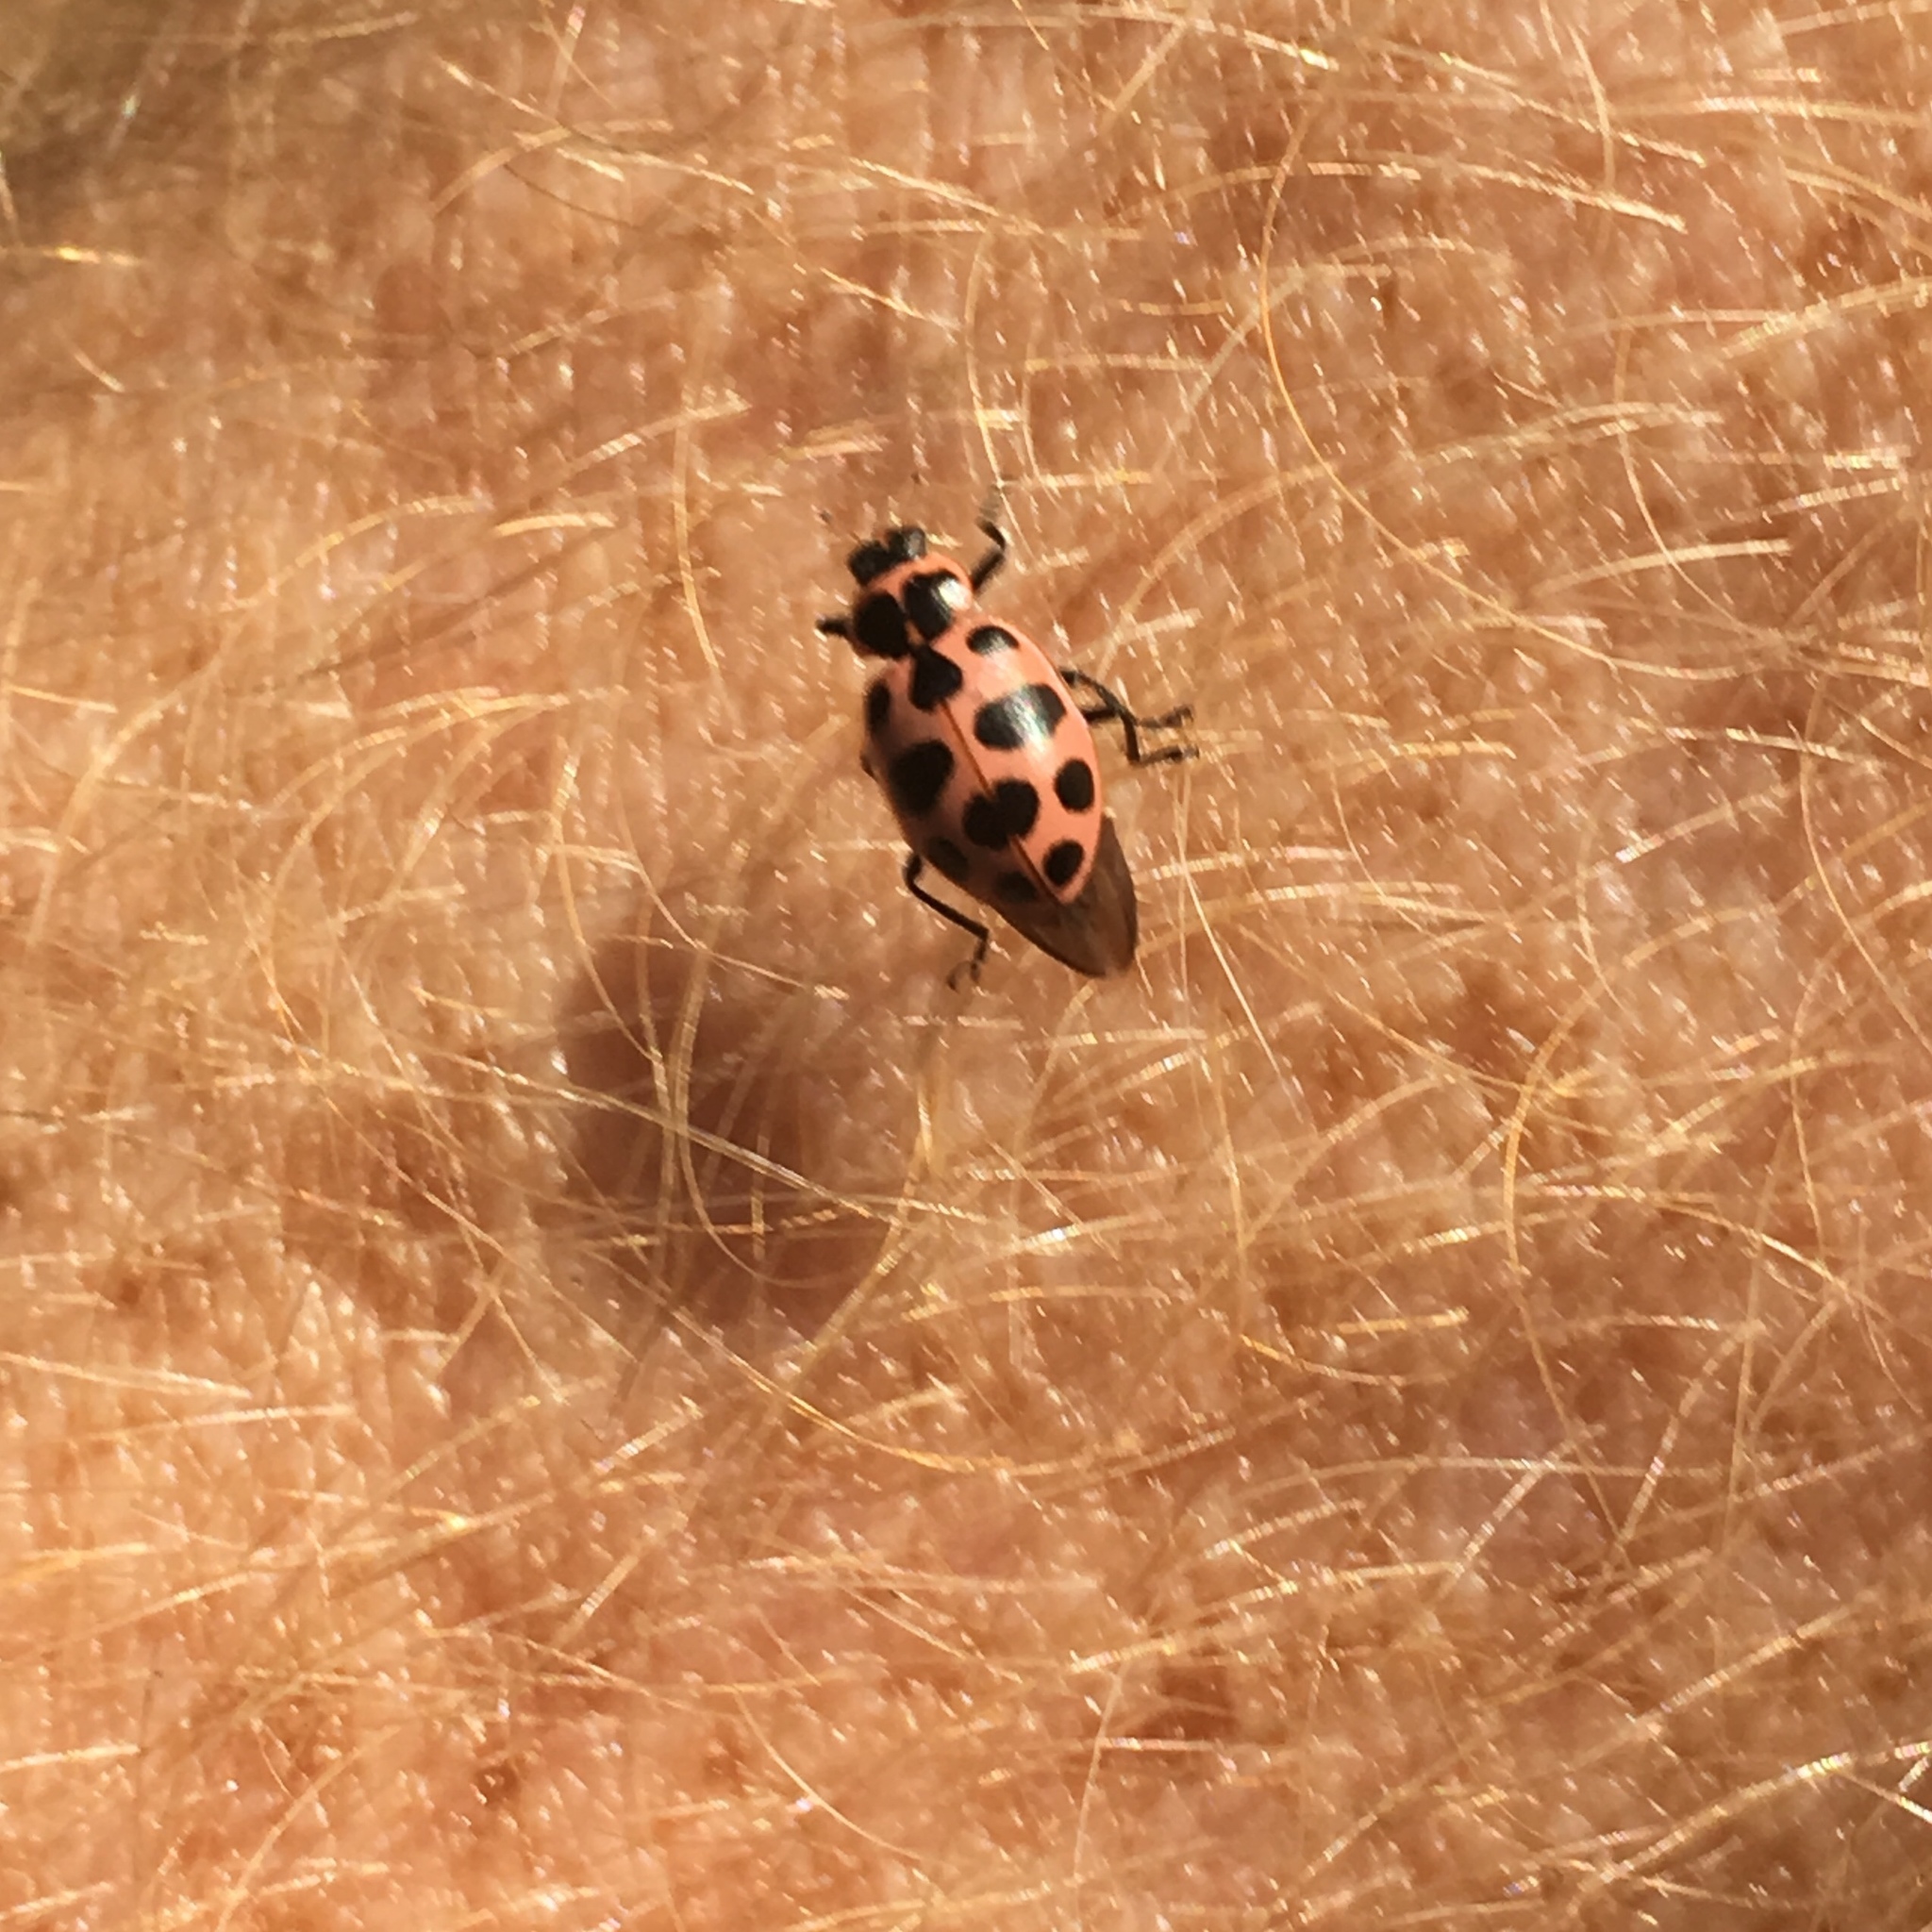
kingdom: Animalia
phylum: Arthropoda
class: Insecta
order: Coleoptera
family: Coccinellidae
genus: Coleomegilla
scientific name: Coleomegilla maculata
